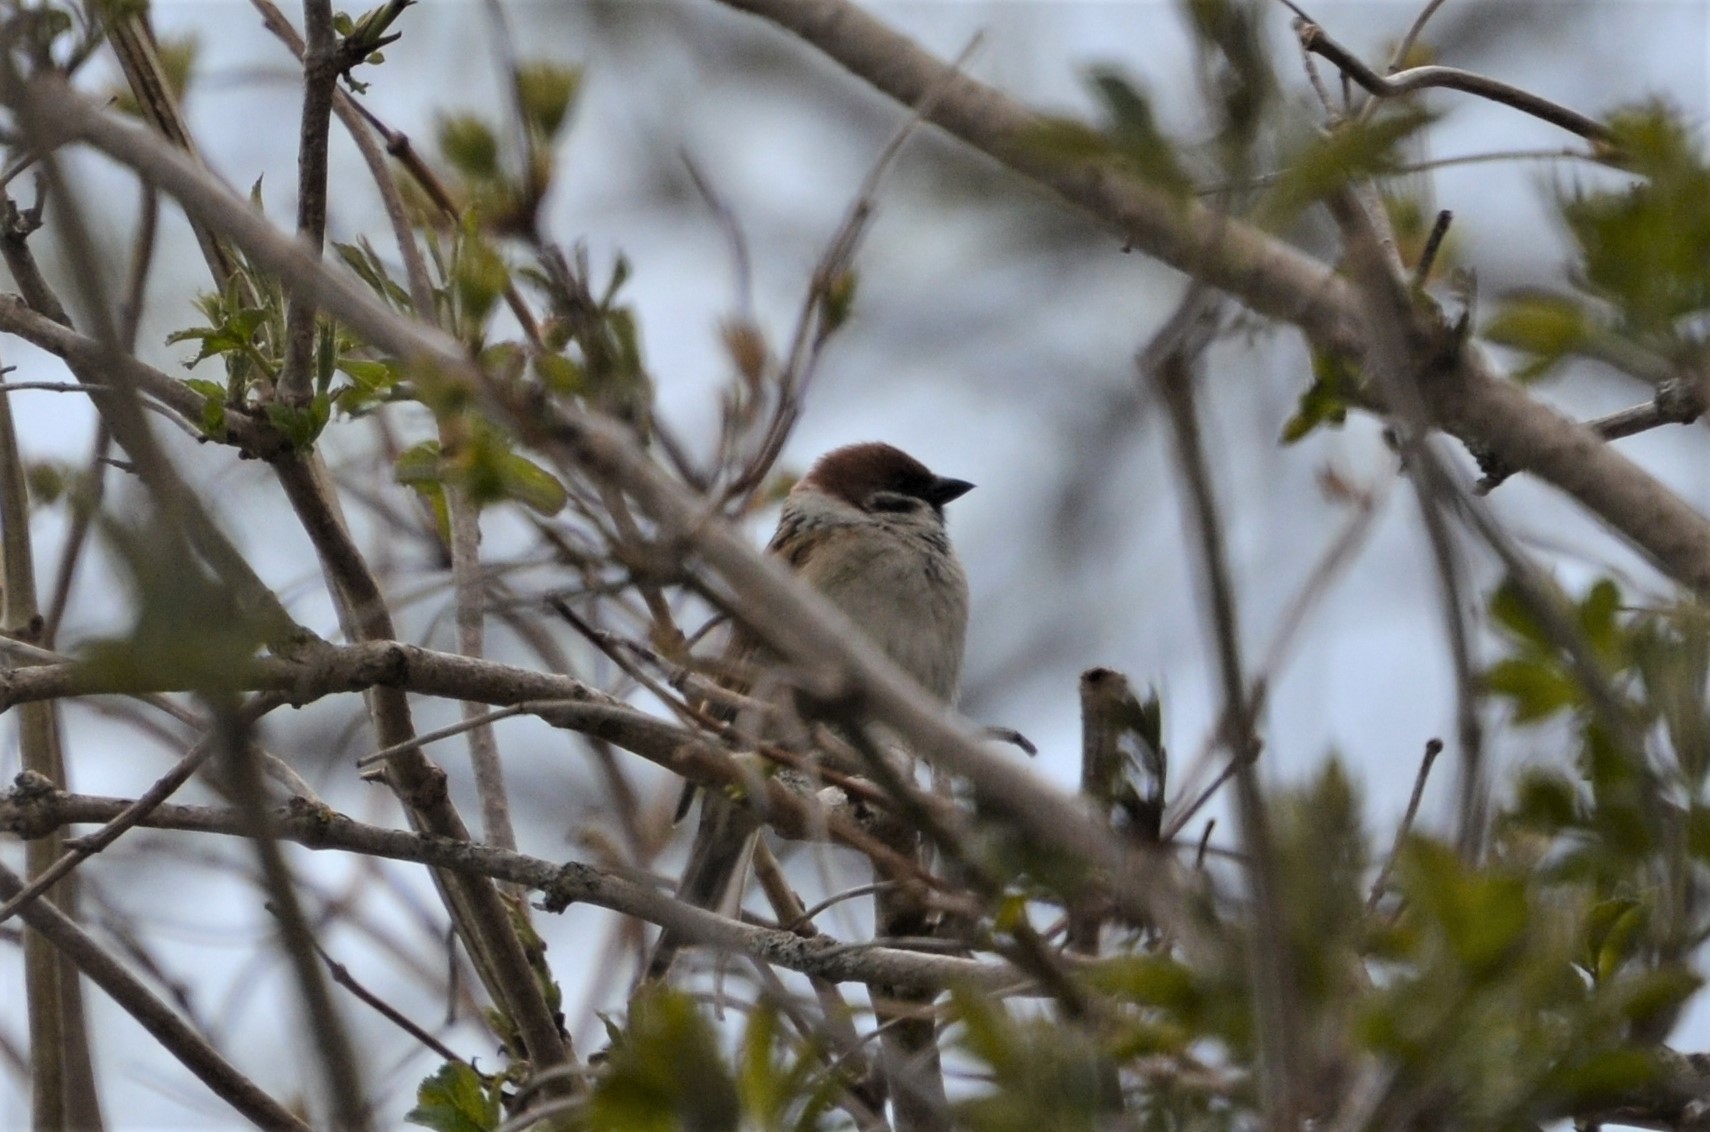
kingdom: Animalia
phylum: Chordata
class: Aves
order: Passeriformes
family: Passeridae
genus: Passer
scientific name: Passer montanus
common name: Eurasian tree sparrow
